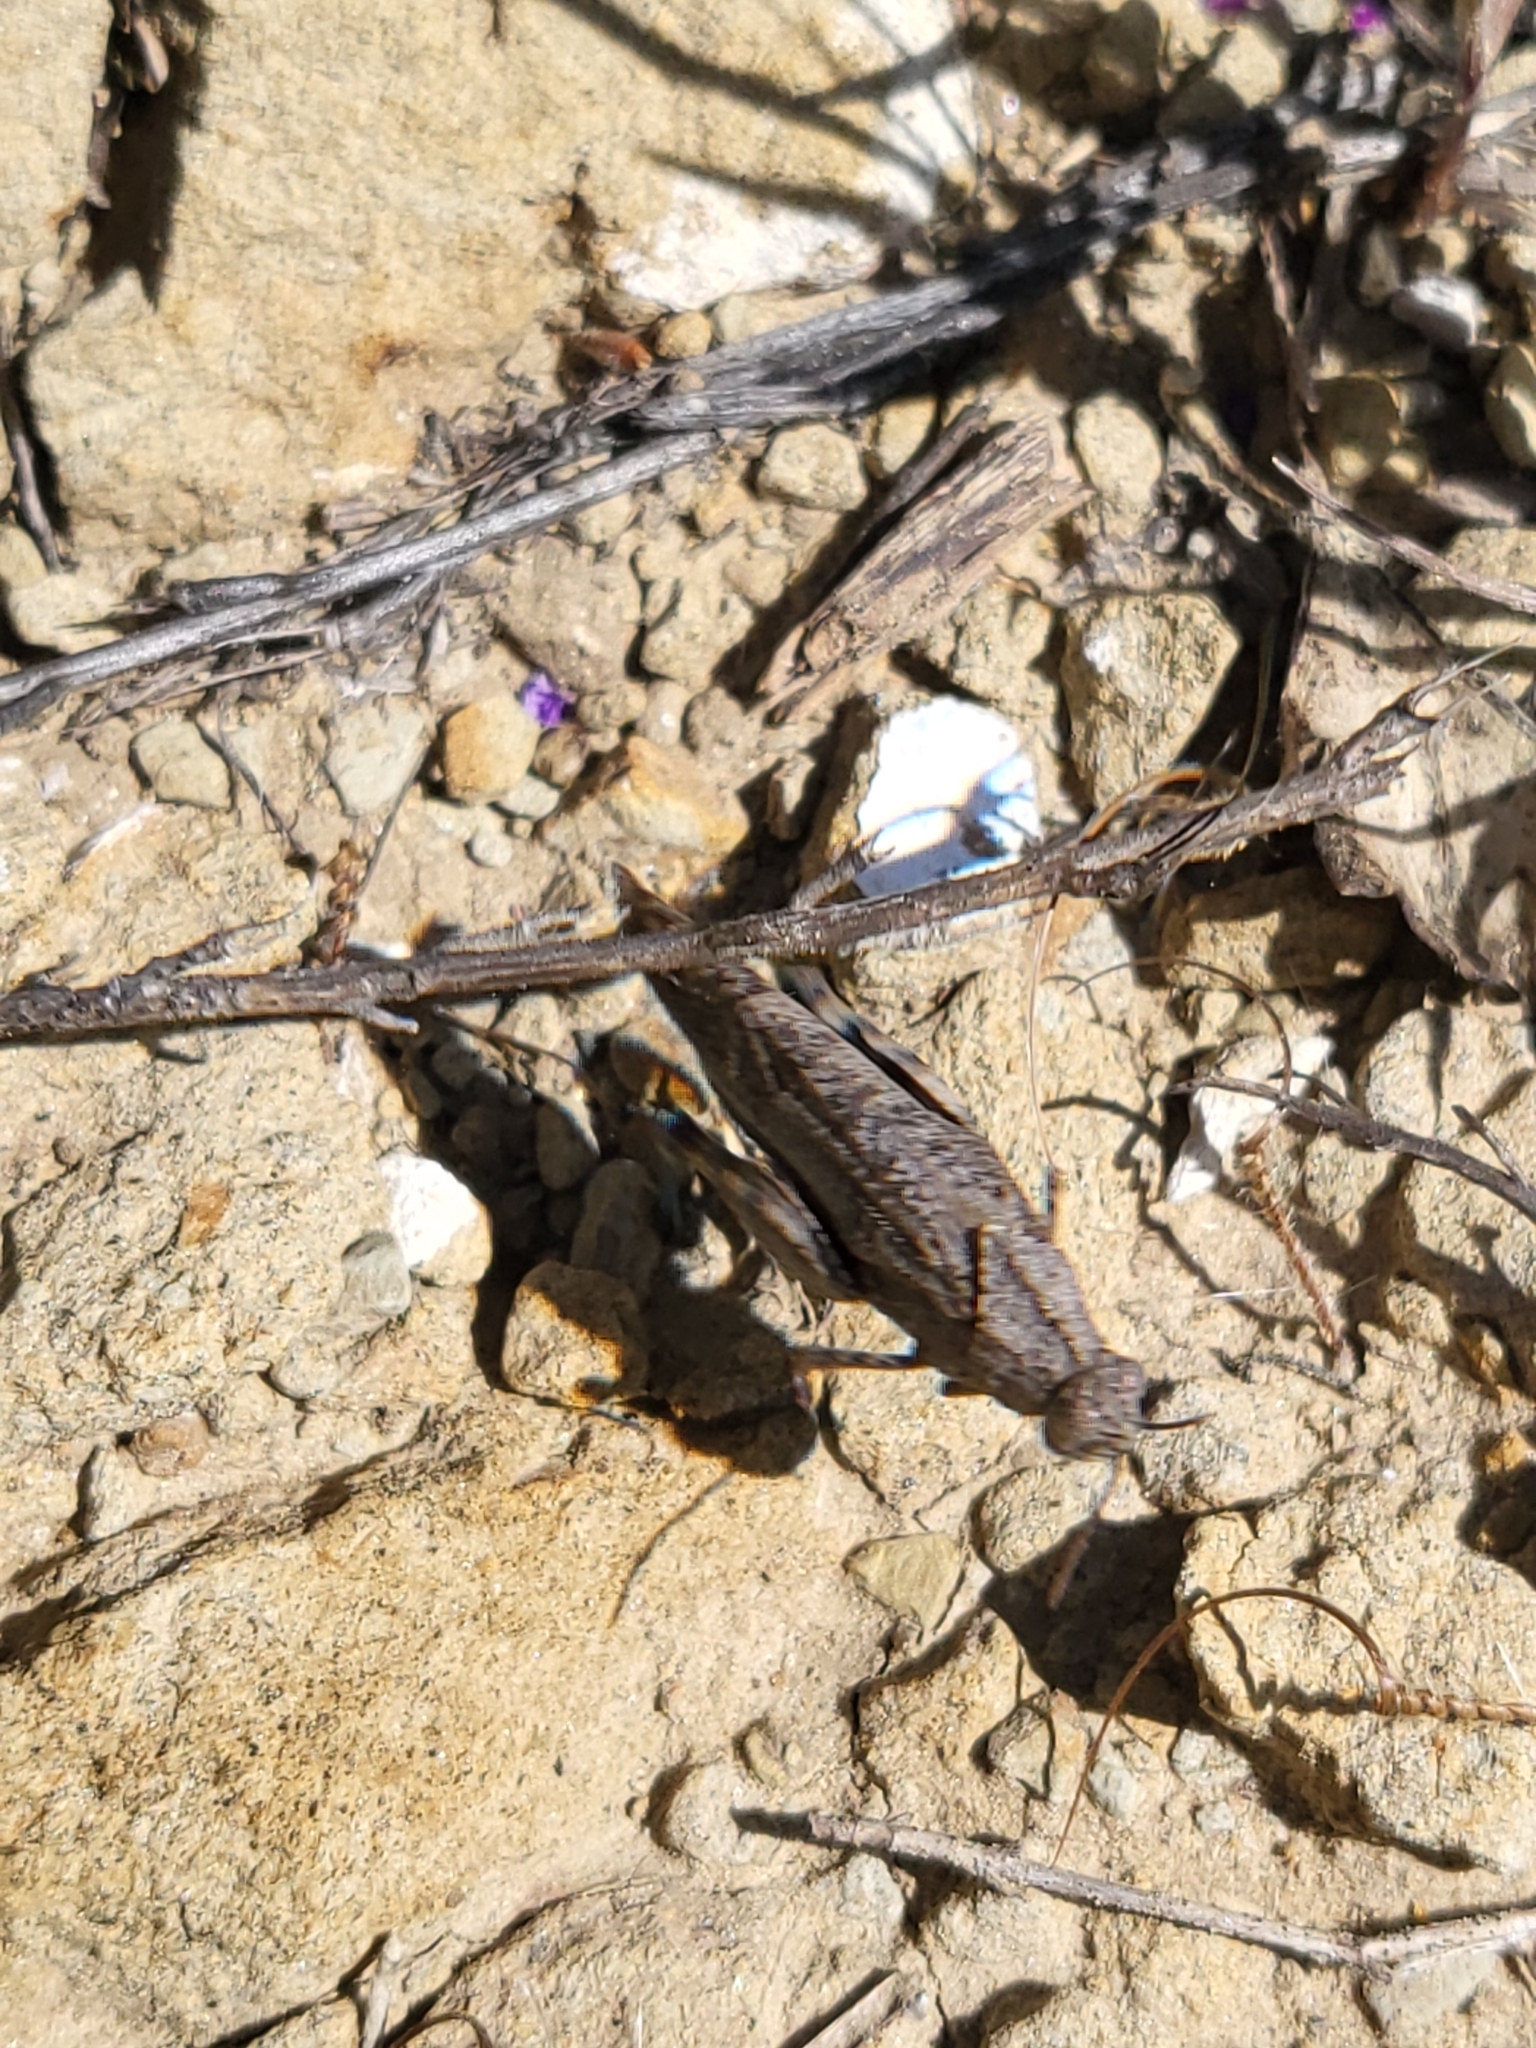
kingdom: Animalia
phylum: Arthropoda
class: Insecta
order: Orthoptera
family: Acrididae
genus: Lactista
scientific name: Lactista gibbosus
